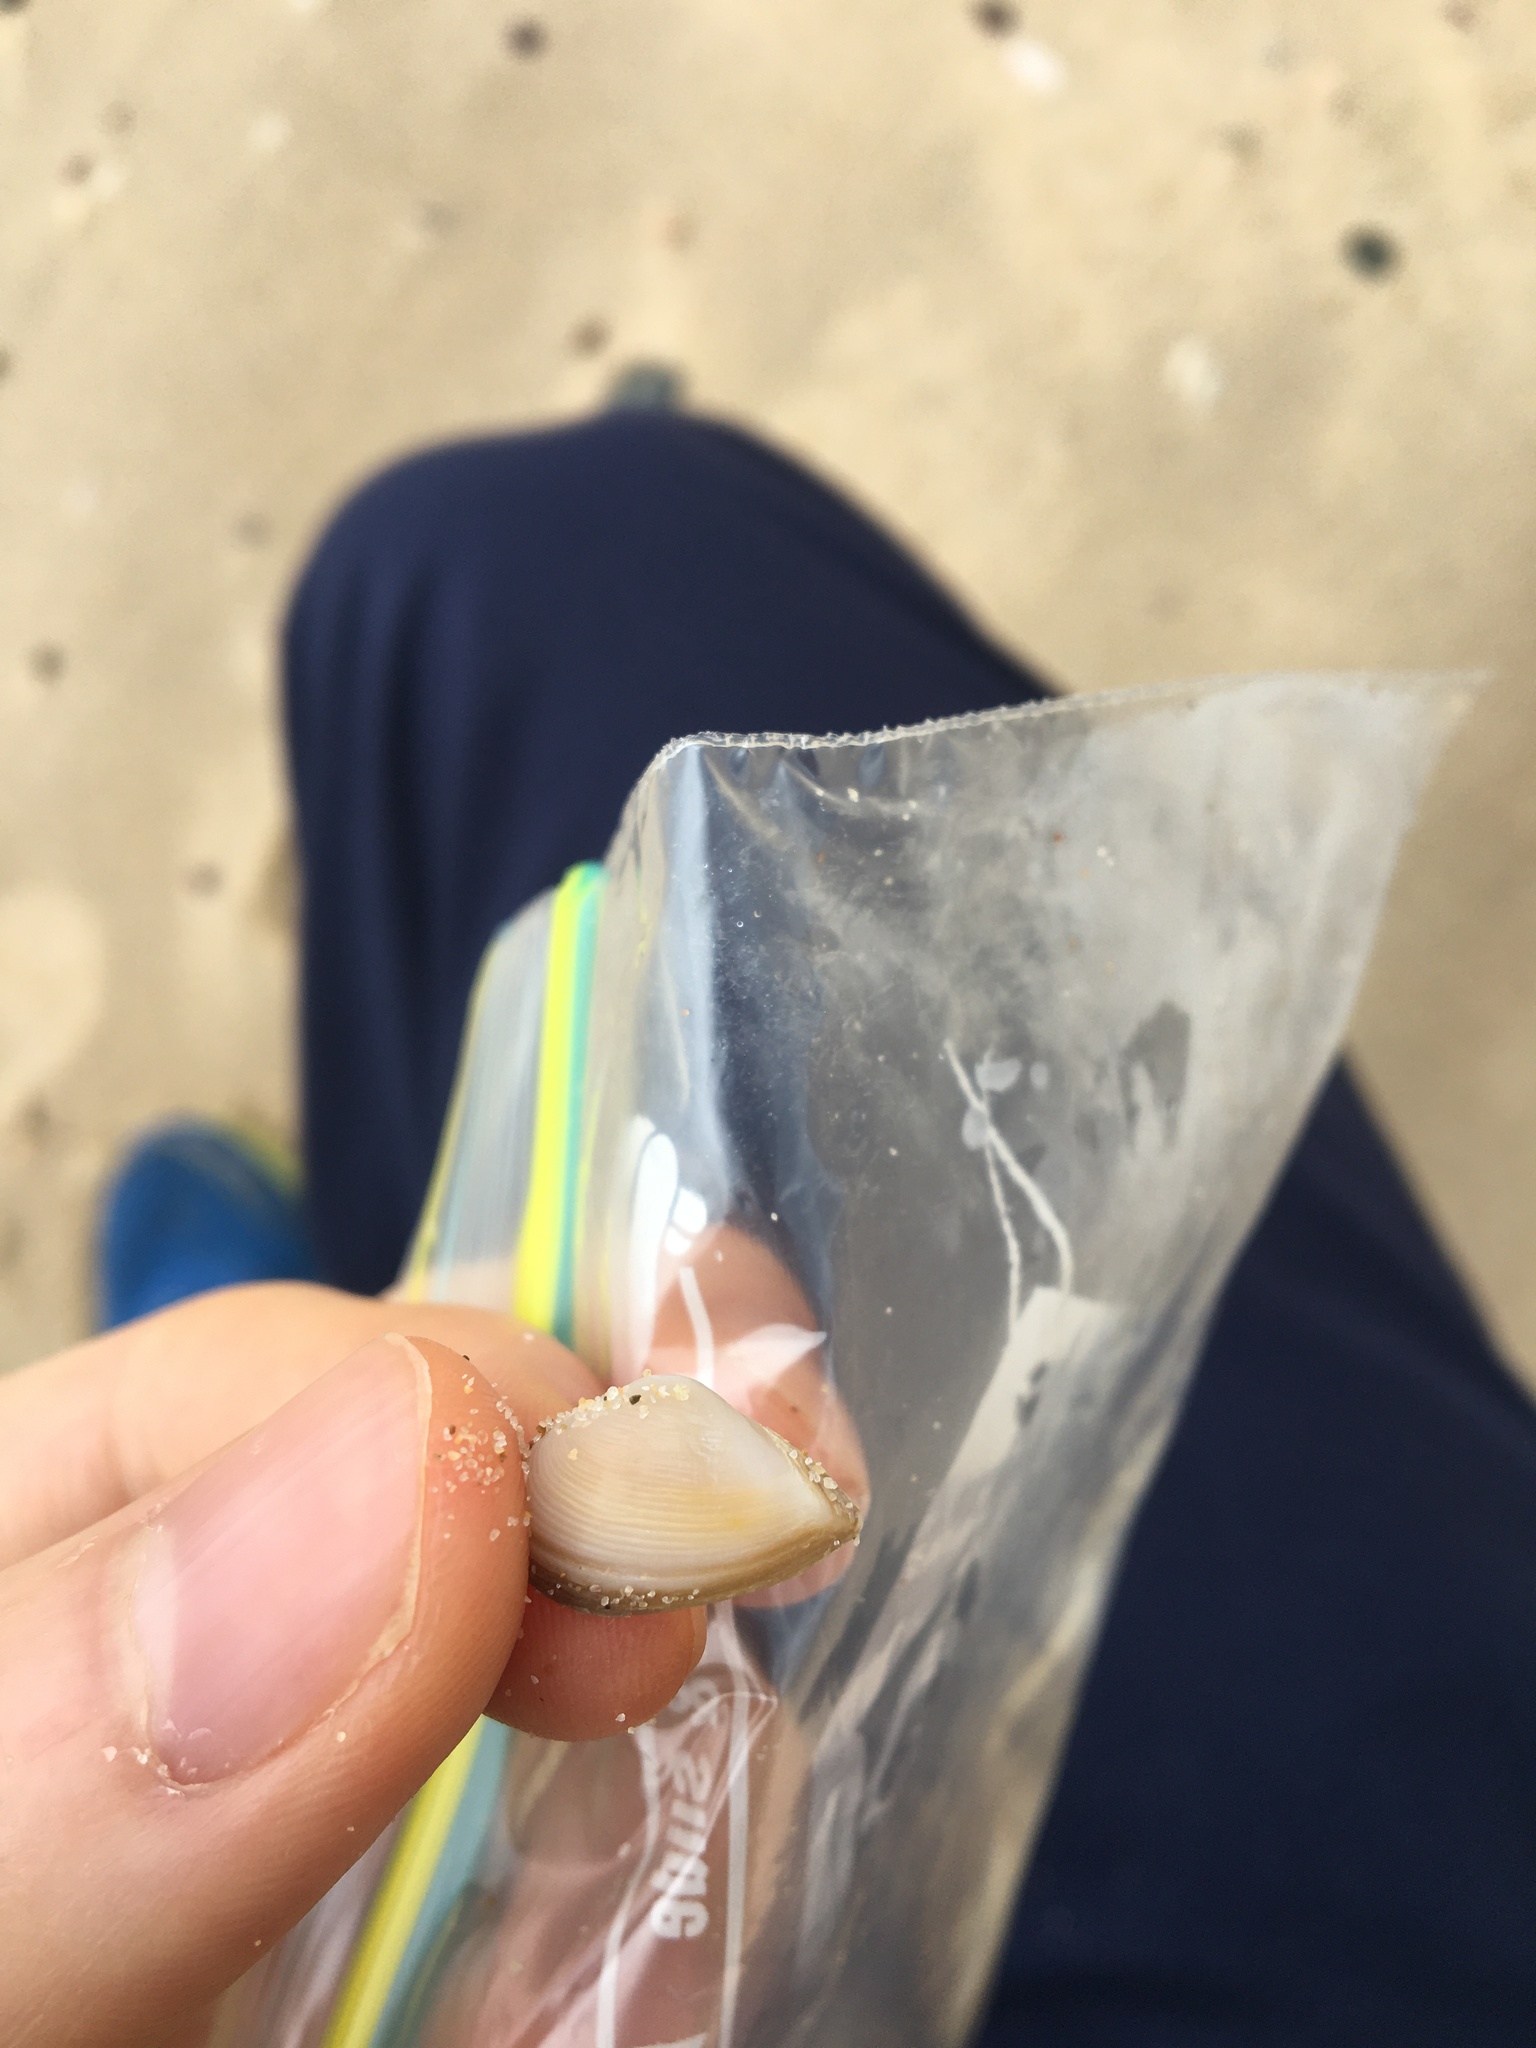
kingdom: Animalia
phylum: Mollusca
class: Bivalvia
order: Myida
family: Corbulidae
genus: Corbula
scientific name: Corbula smithiana
